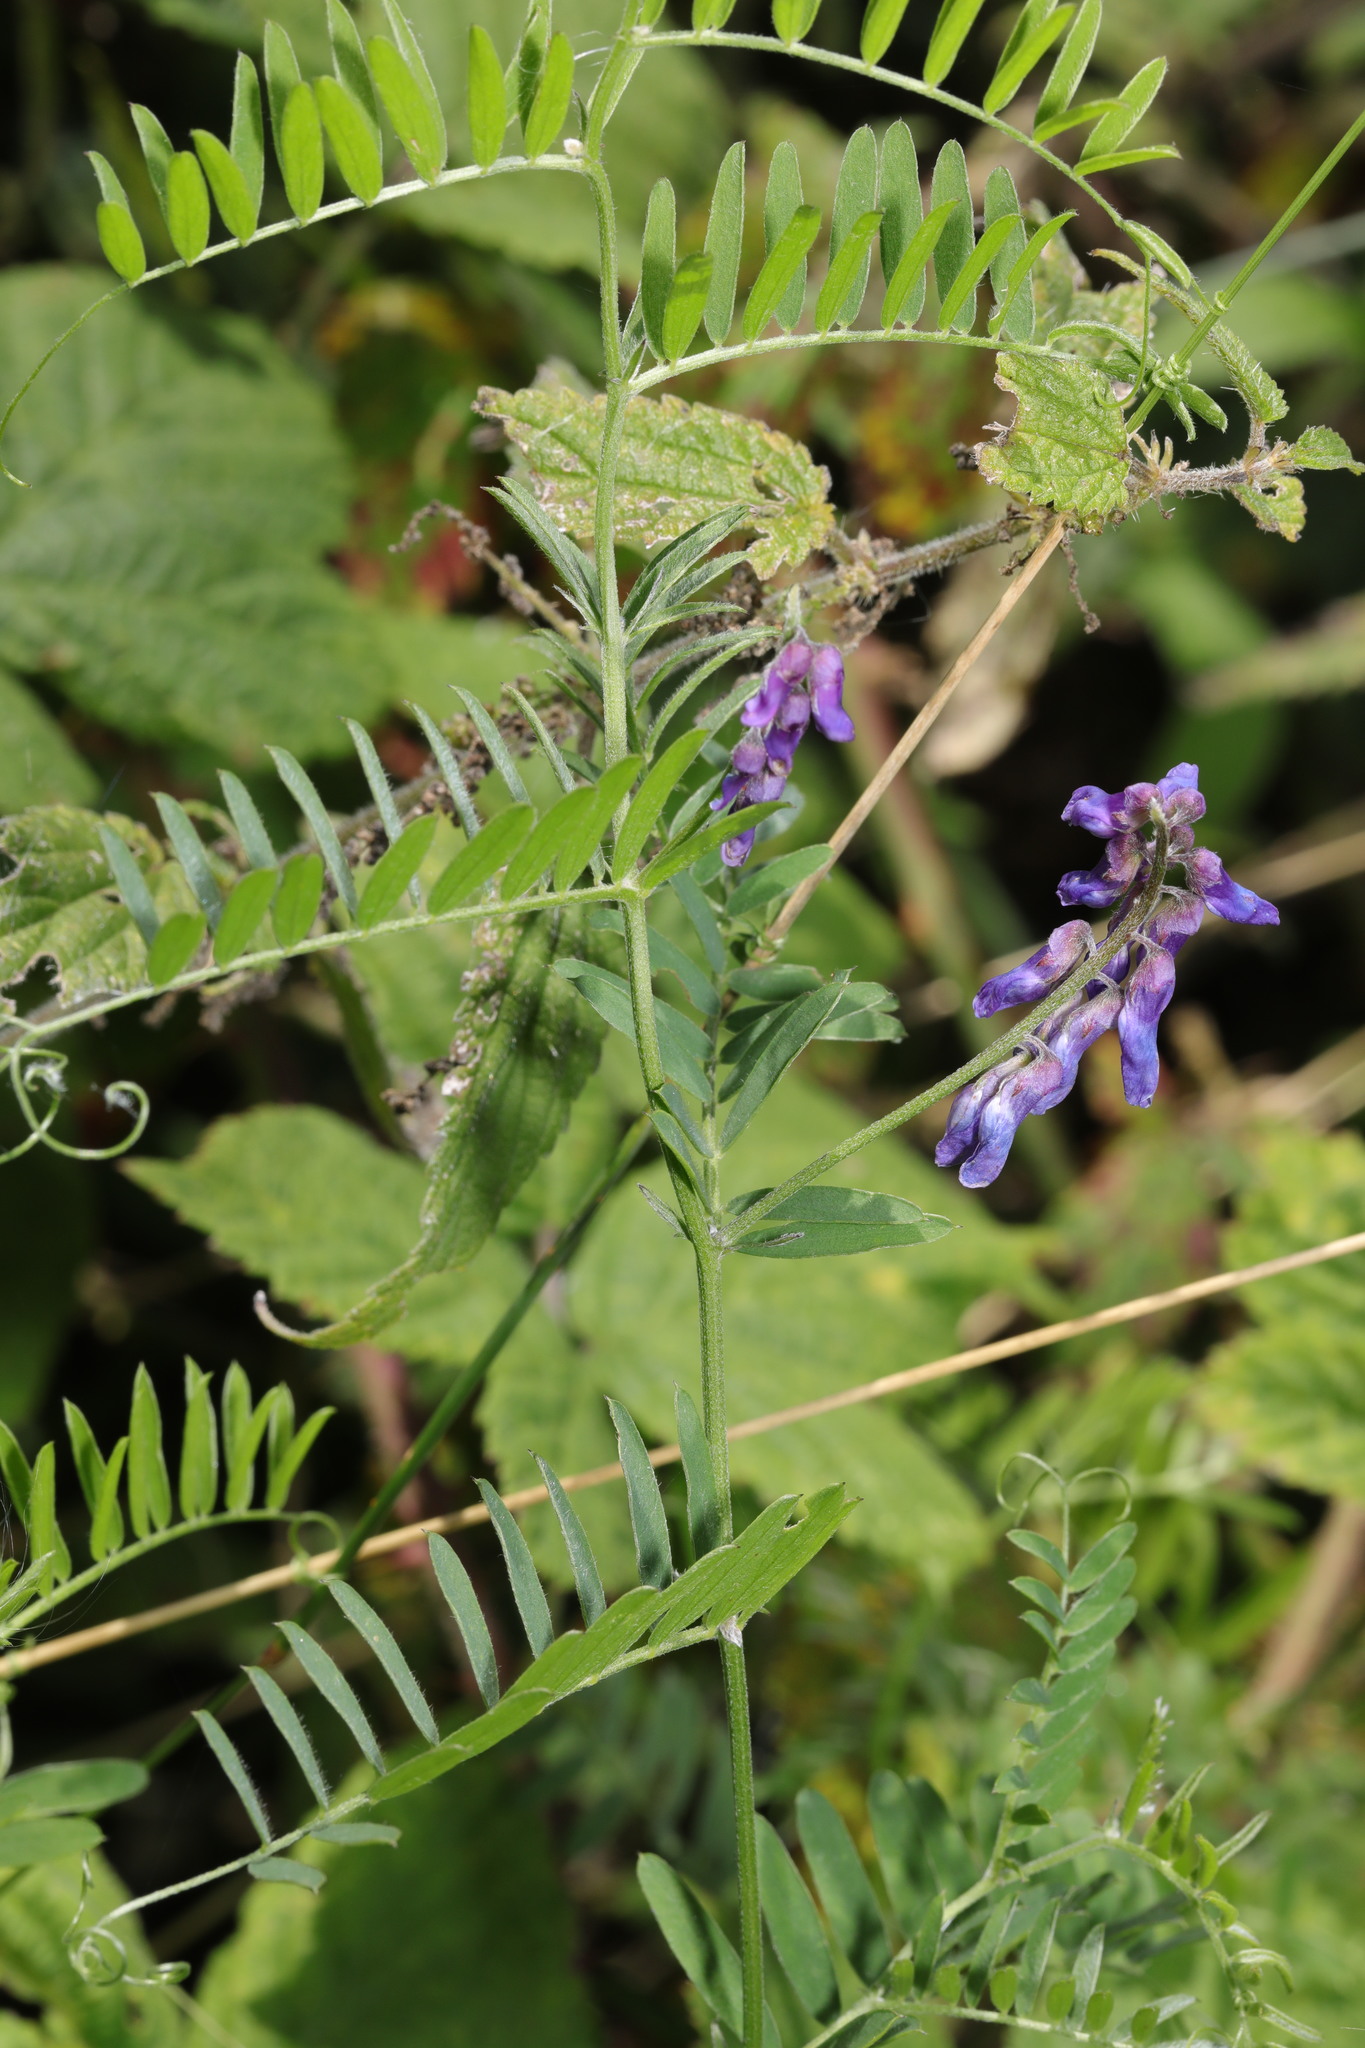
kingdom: Plantae
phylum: Tracheophyta
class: Magnoliopsida
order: Fabales
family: Fabaceae
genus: Vicia
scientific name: Vicia cracca
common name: Bird vetch
